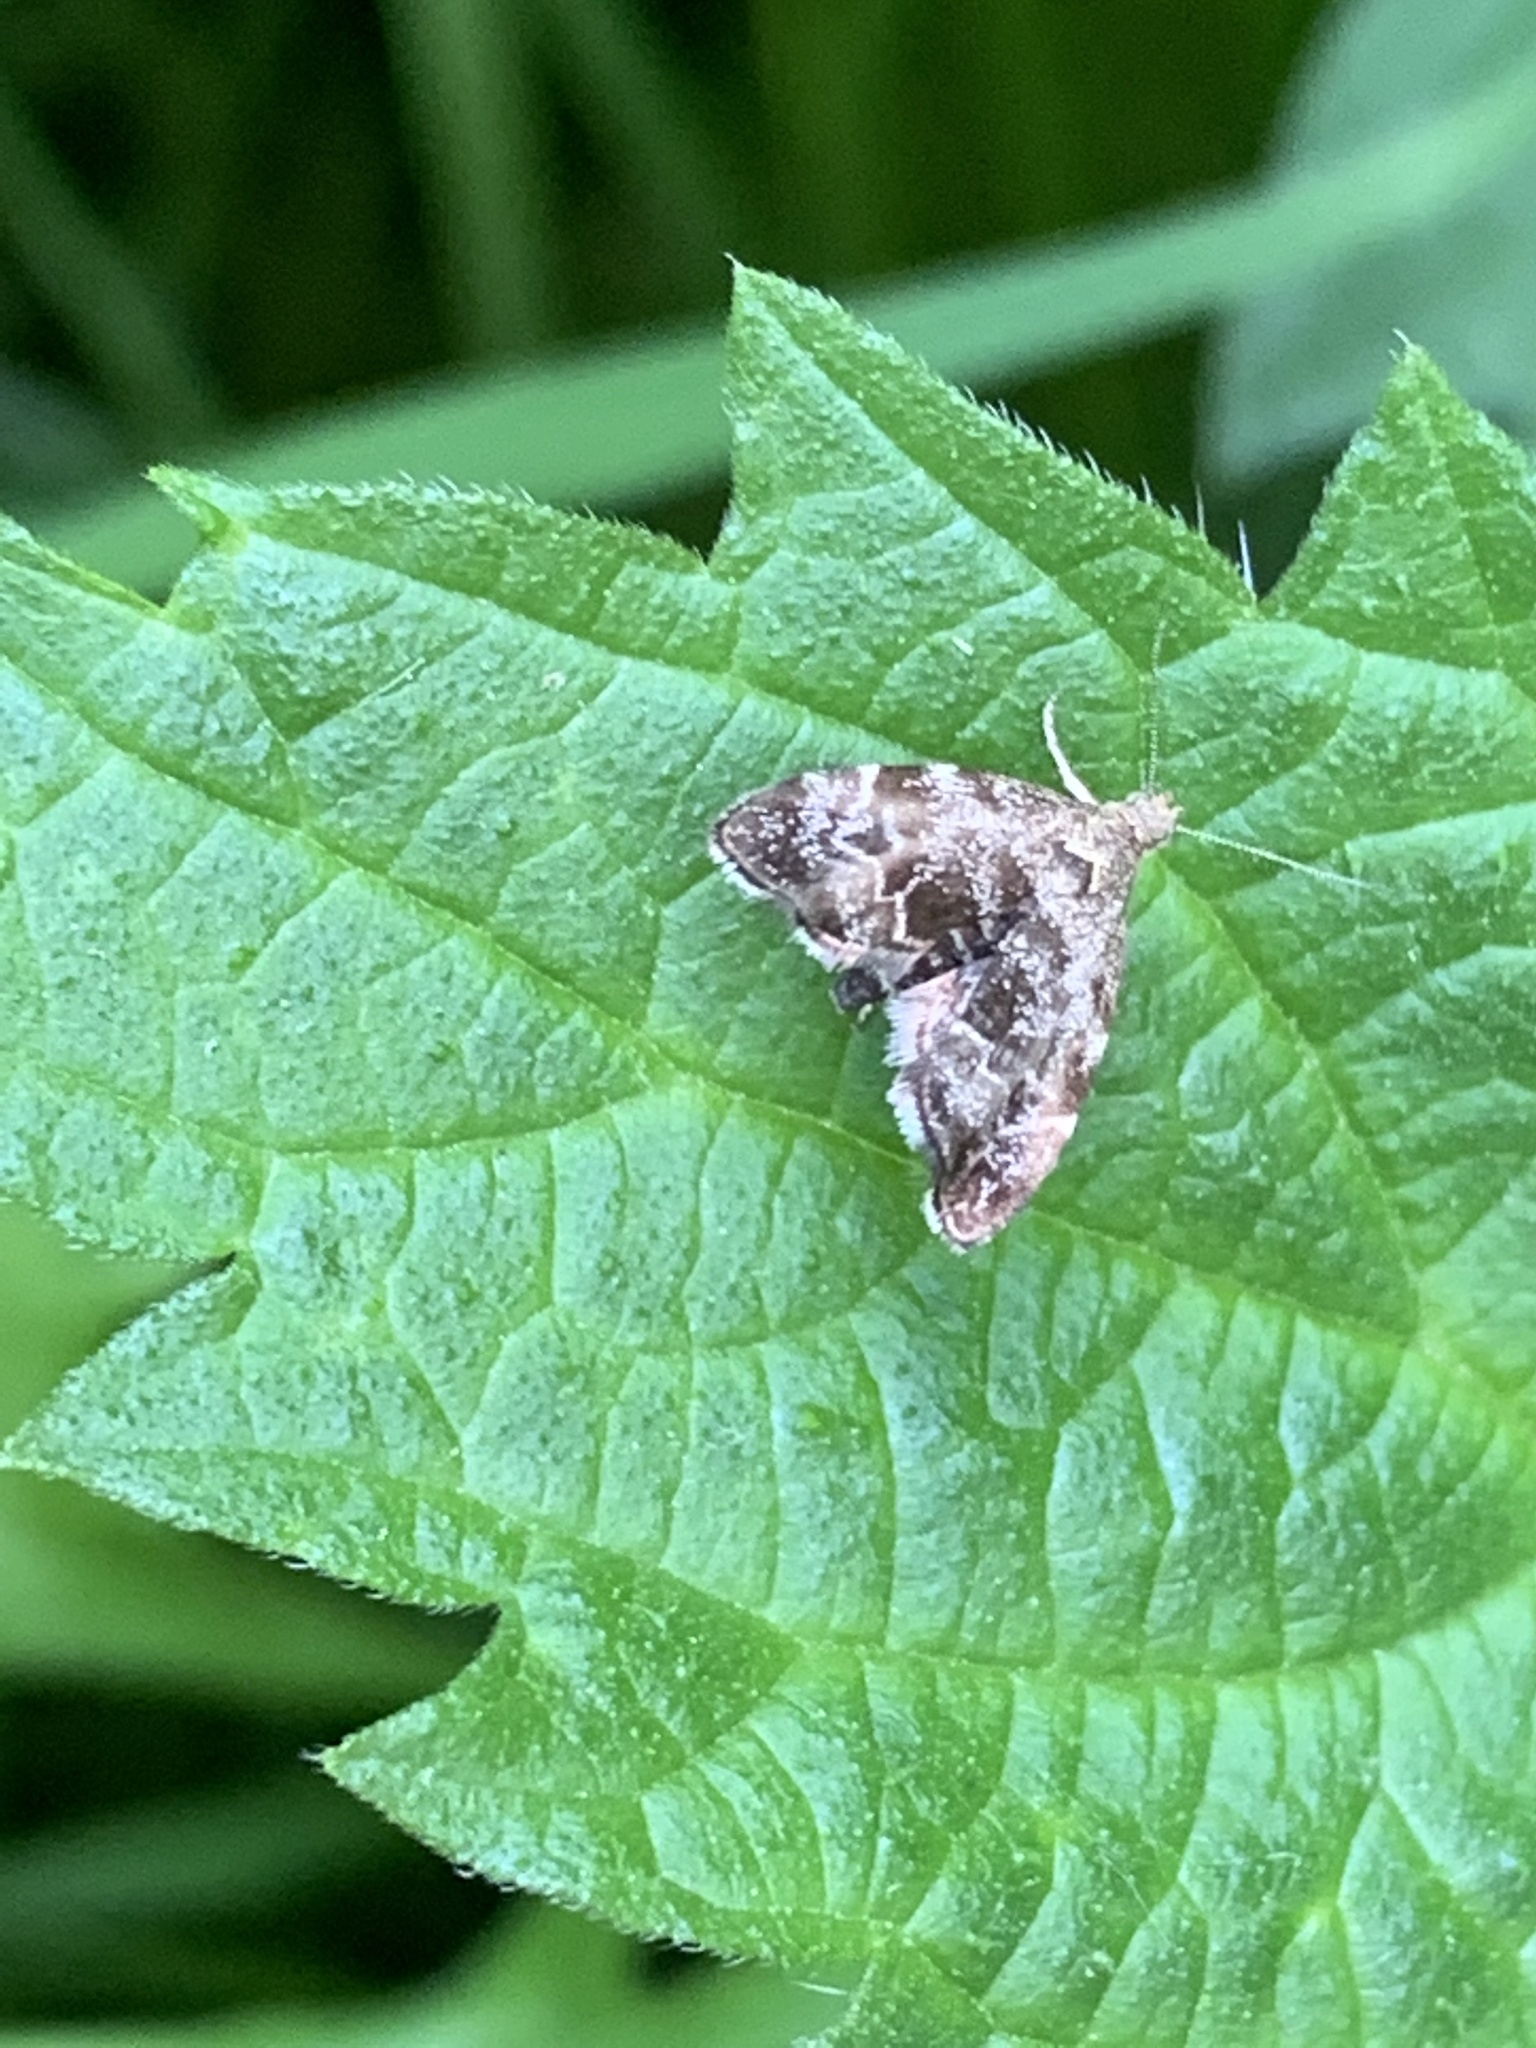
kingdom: Animalia
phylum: Arthropoda
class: Insecta
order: Lepidoptera
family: Choreutidae
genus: Anthophila
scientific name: Anthophila fabriciana
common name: Nettle-tap
